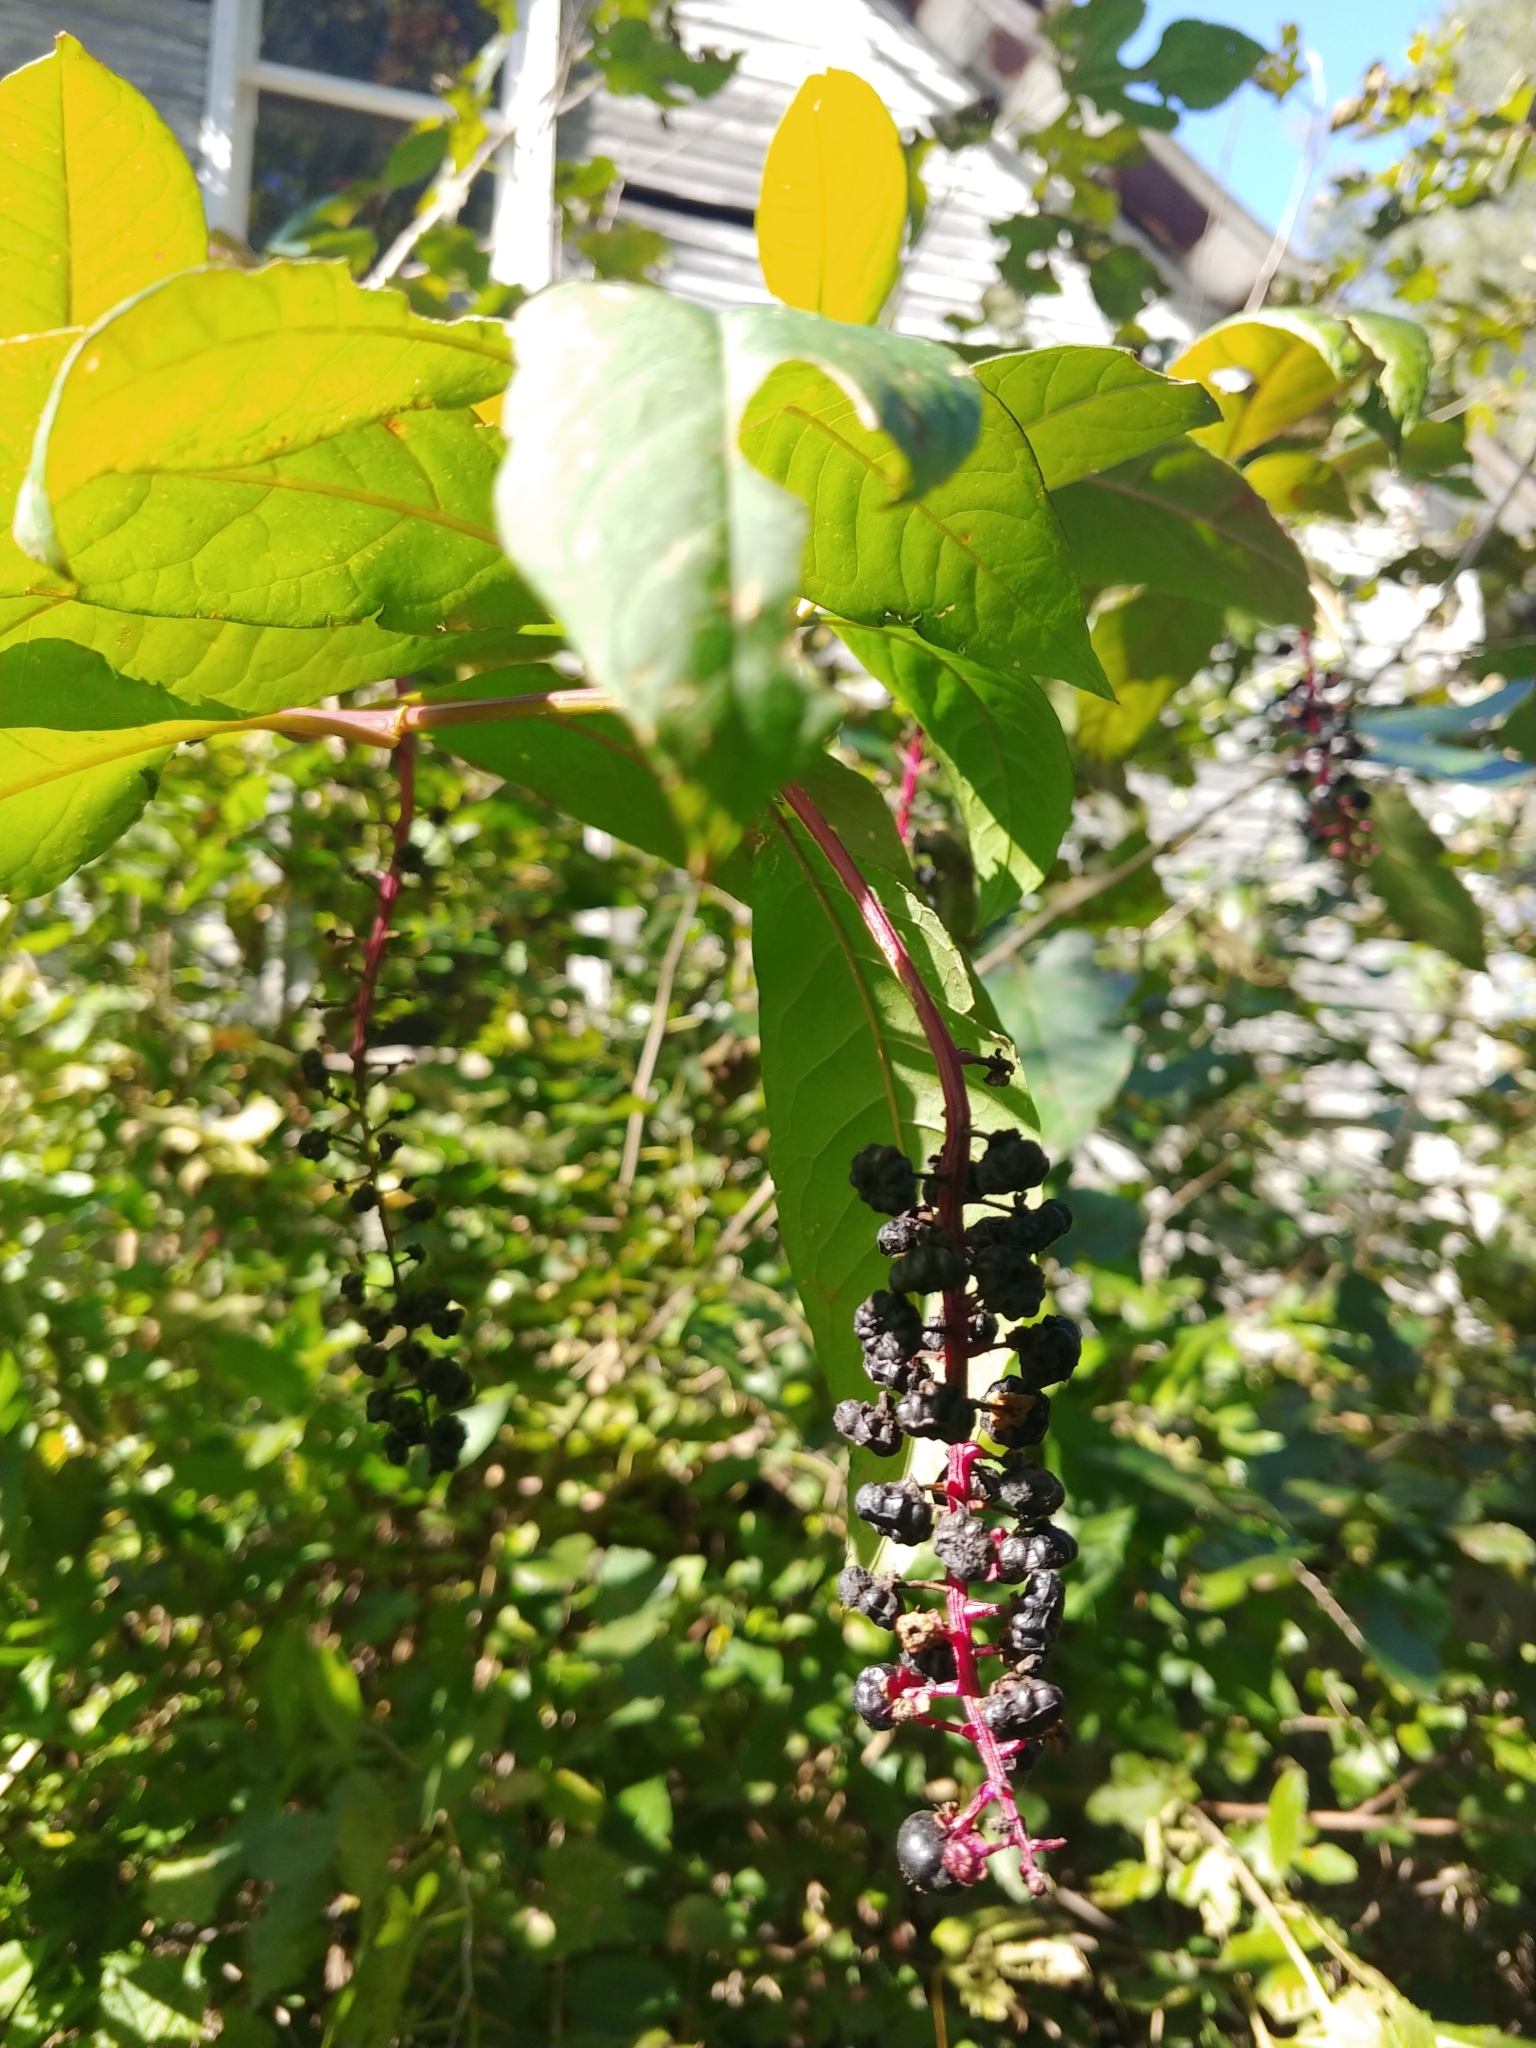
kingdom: Plantae
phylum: Tracheophyta
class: Magnoliopsida
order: Caryophyllales
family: Phytolaccaceae
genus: Phytolacca
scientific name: Phytolacca americana
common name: American pokeweed
